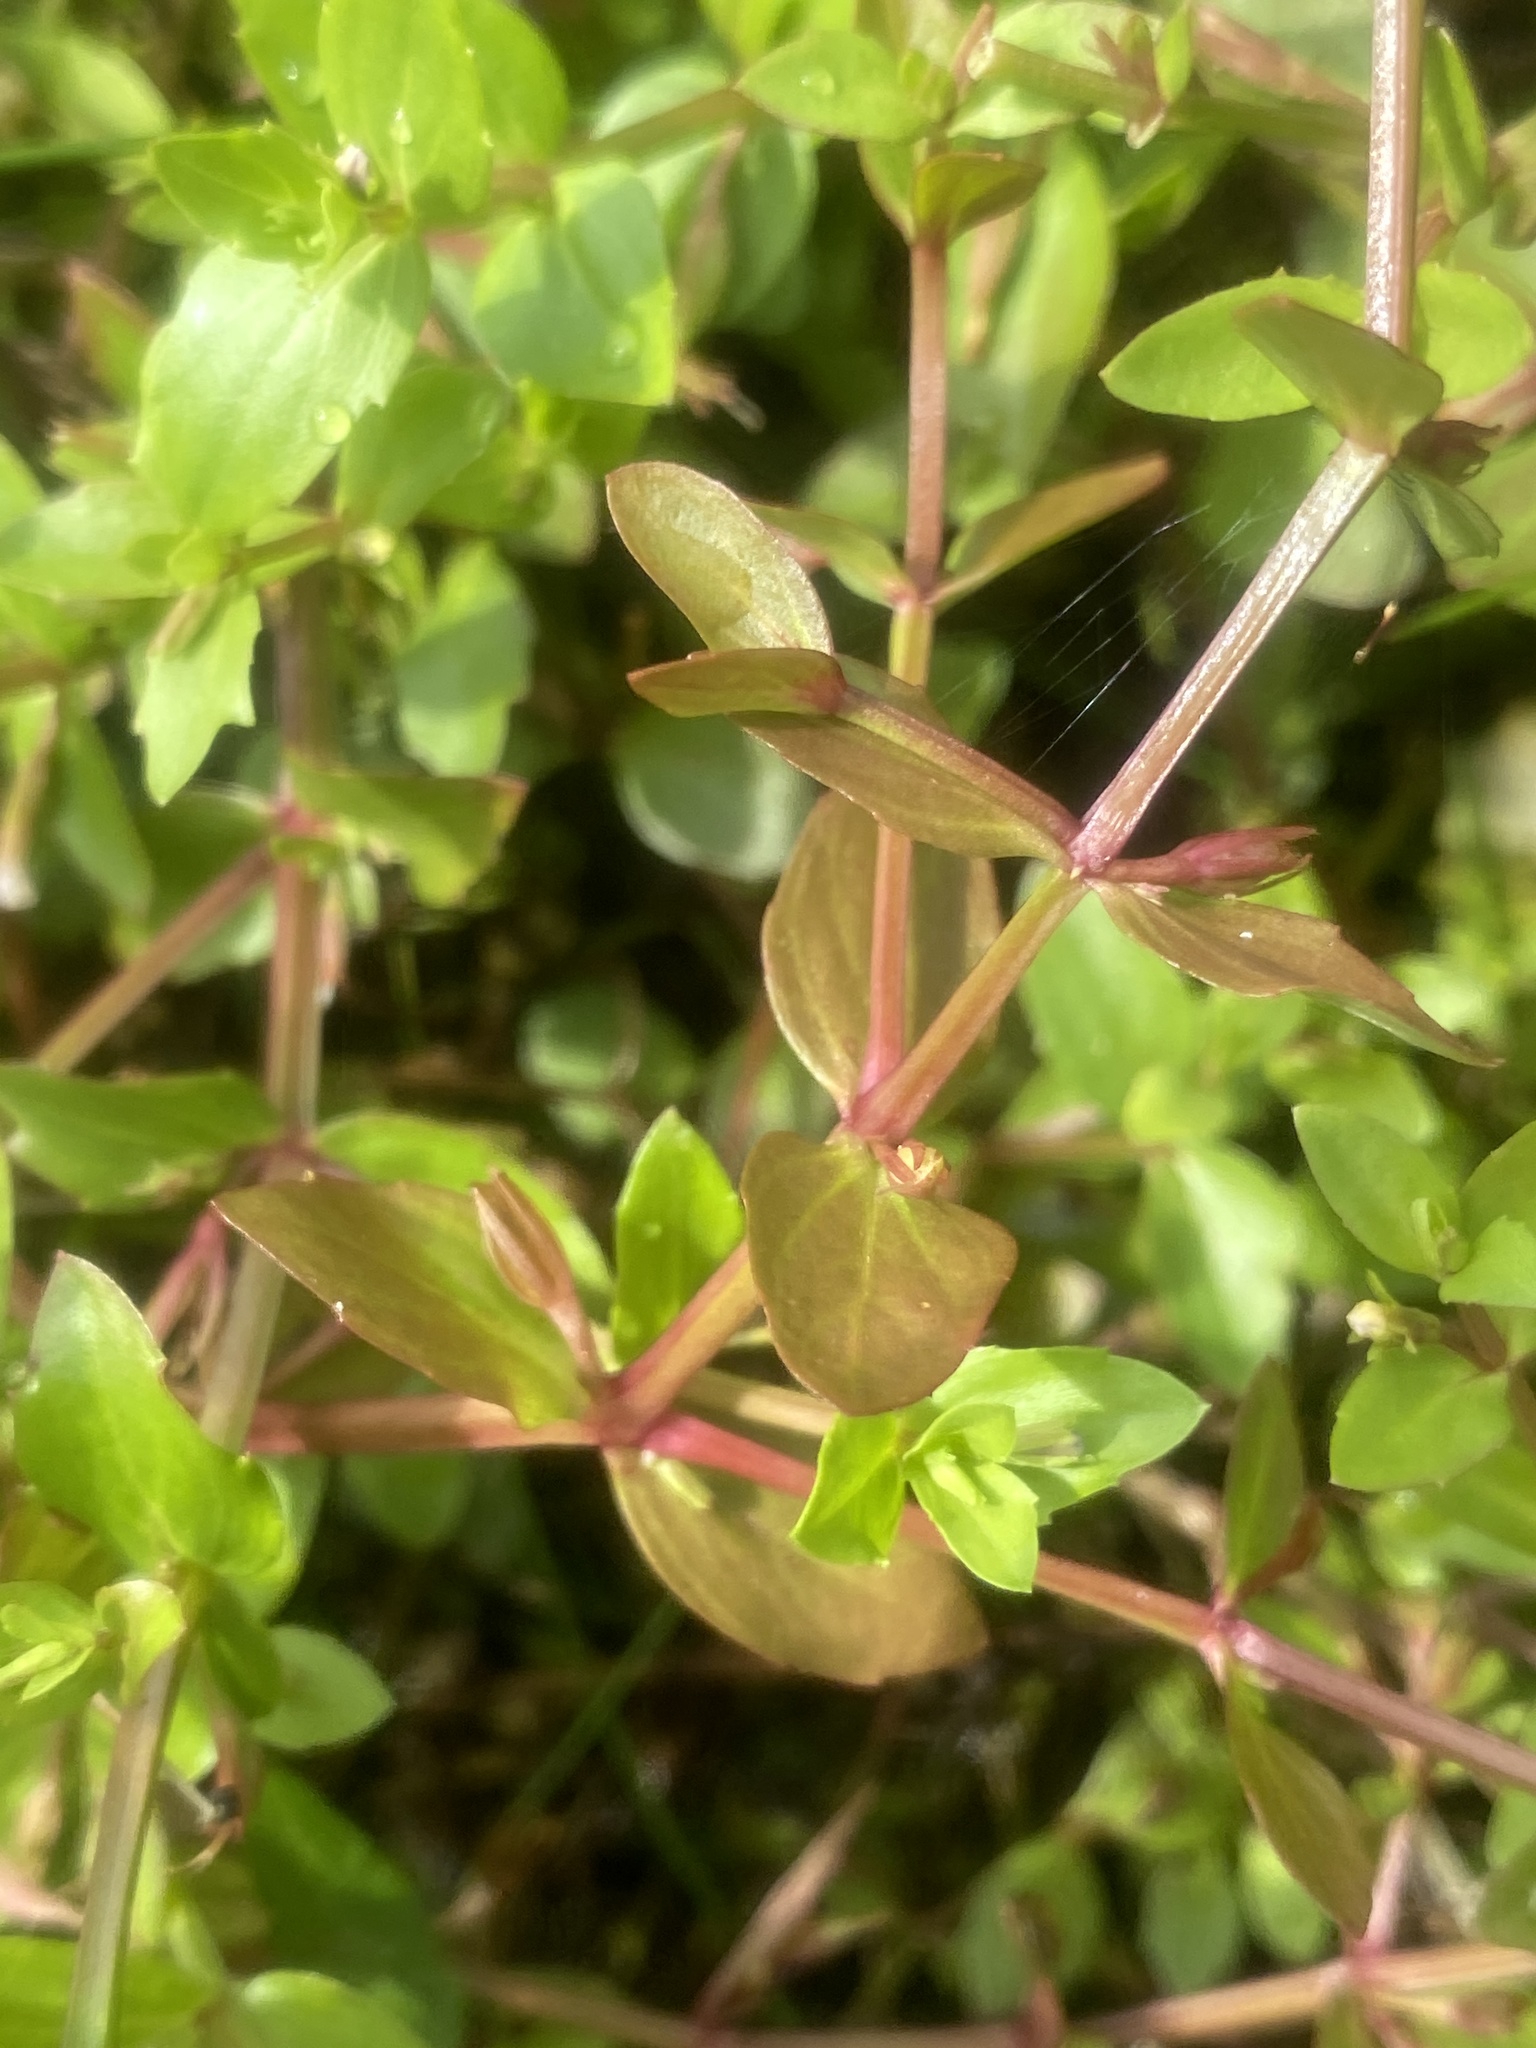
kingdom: Plantae
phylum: Tracheophyta
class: Magnoliopsida
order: Lamiales
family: Linderniaceae
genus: Lindernia
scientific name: Lindernia dubia
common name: Annual false pimpernel
